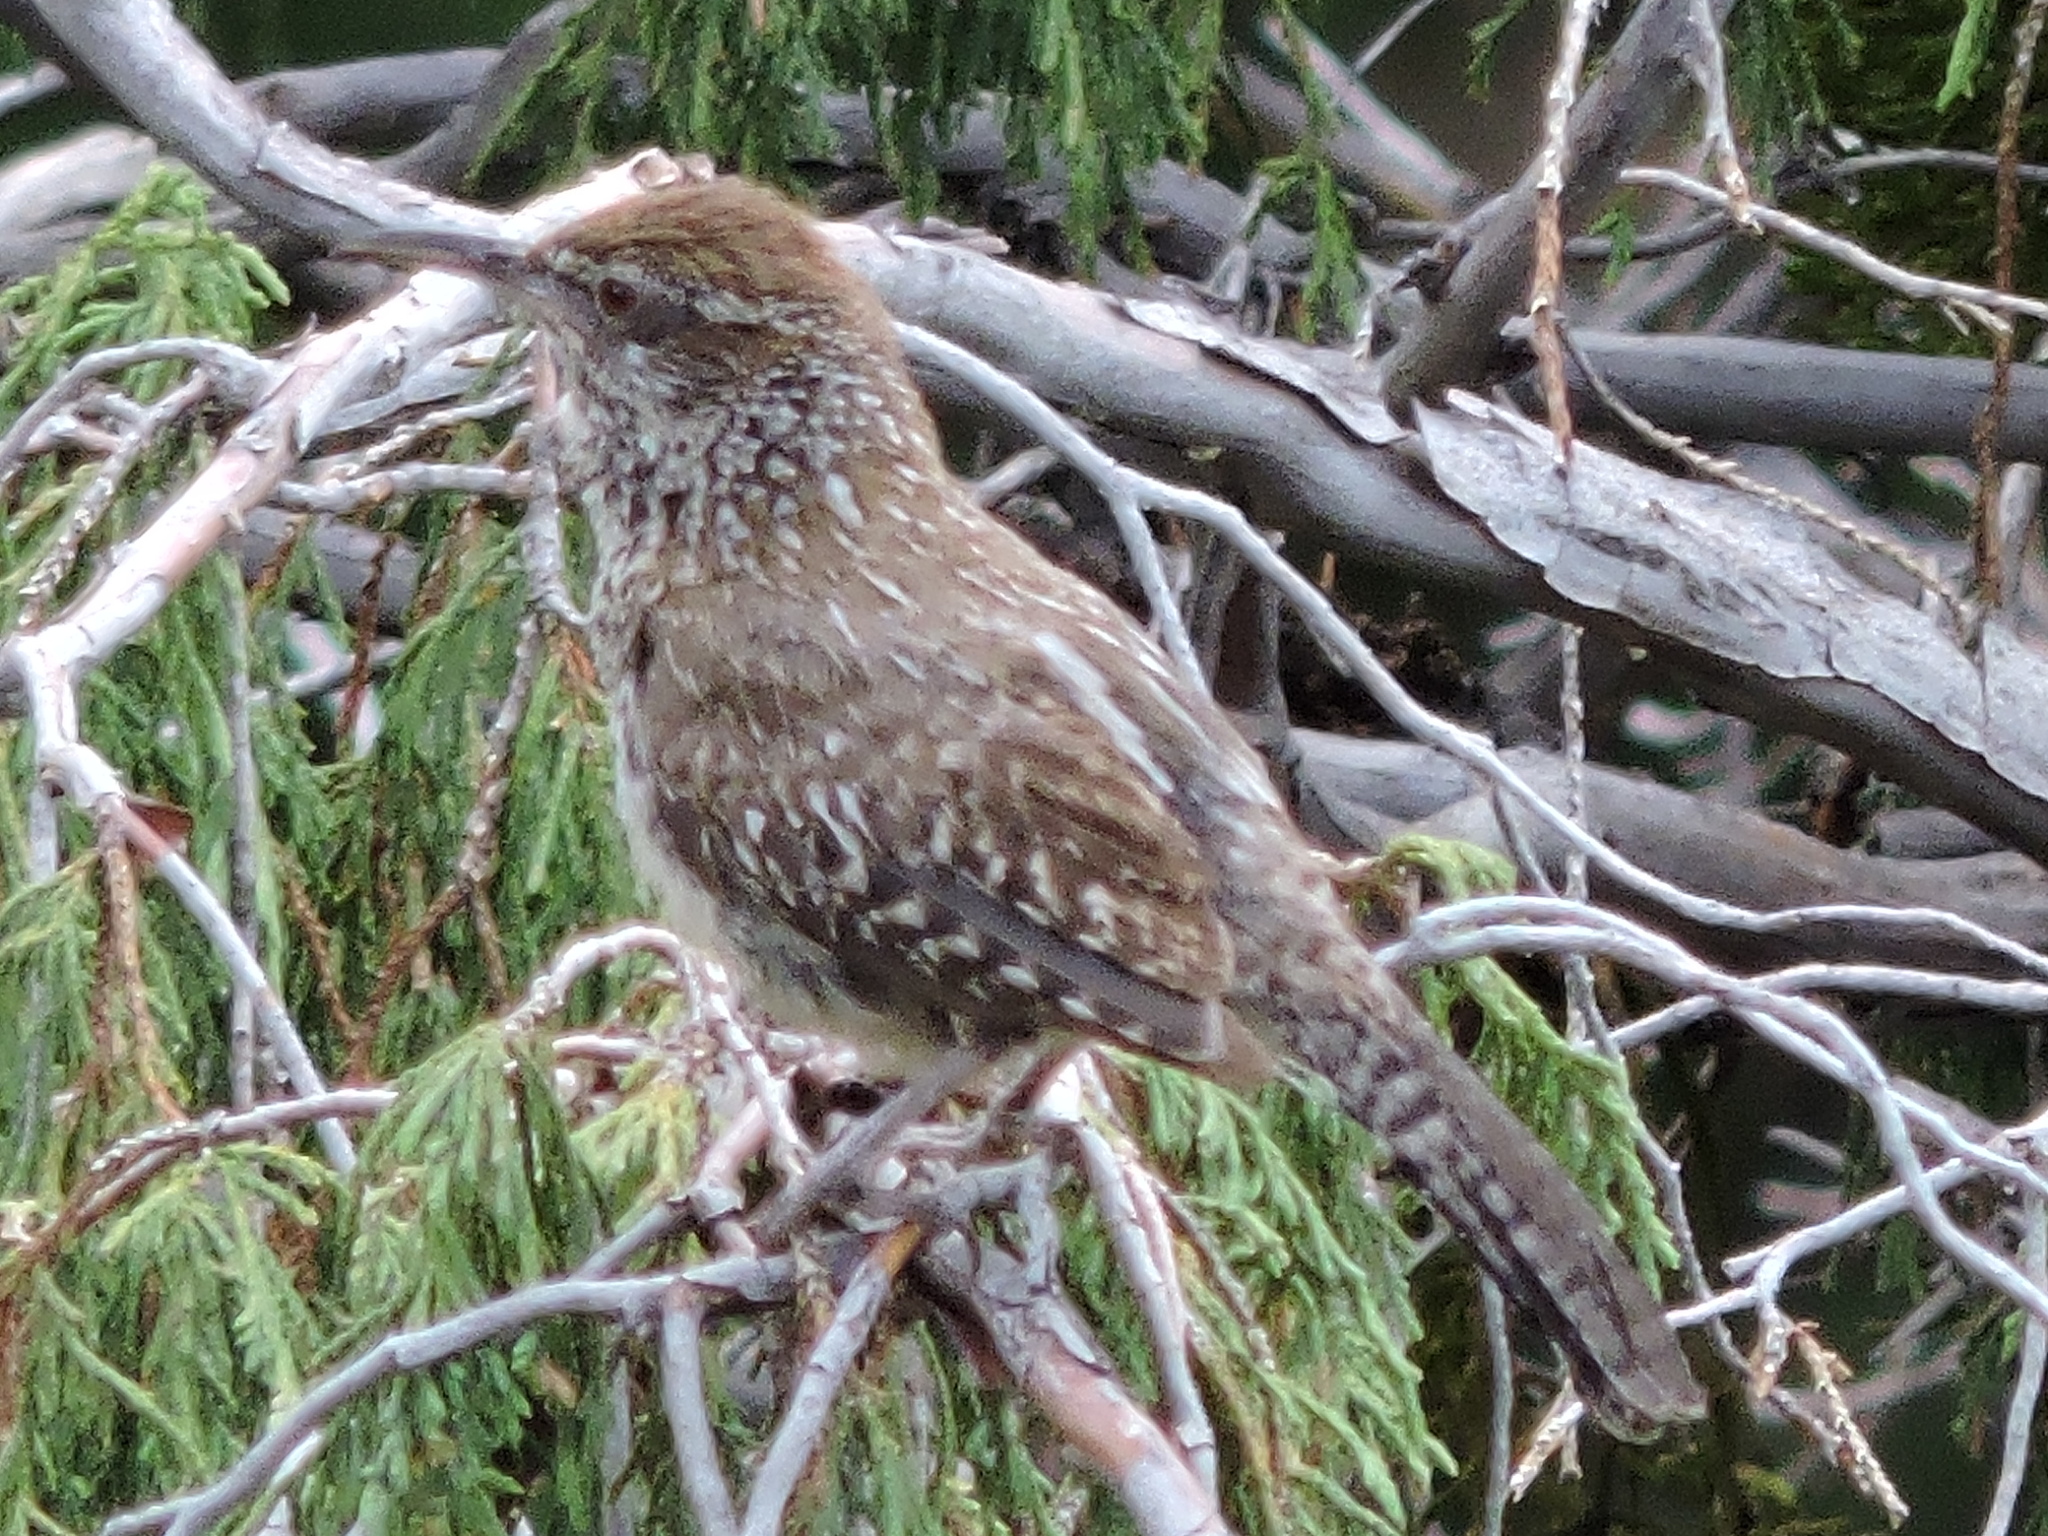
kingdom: Animalia
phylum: Chordata
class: Aves
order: Passeriformes
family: Troglodytidae
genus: Campylorhynchus
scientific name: Campylorhynchus brunneicapillus
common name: Cactus wren
